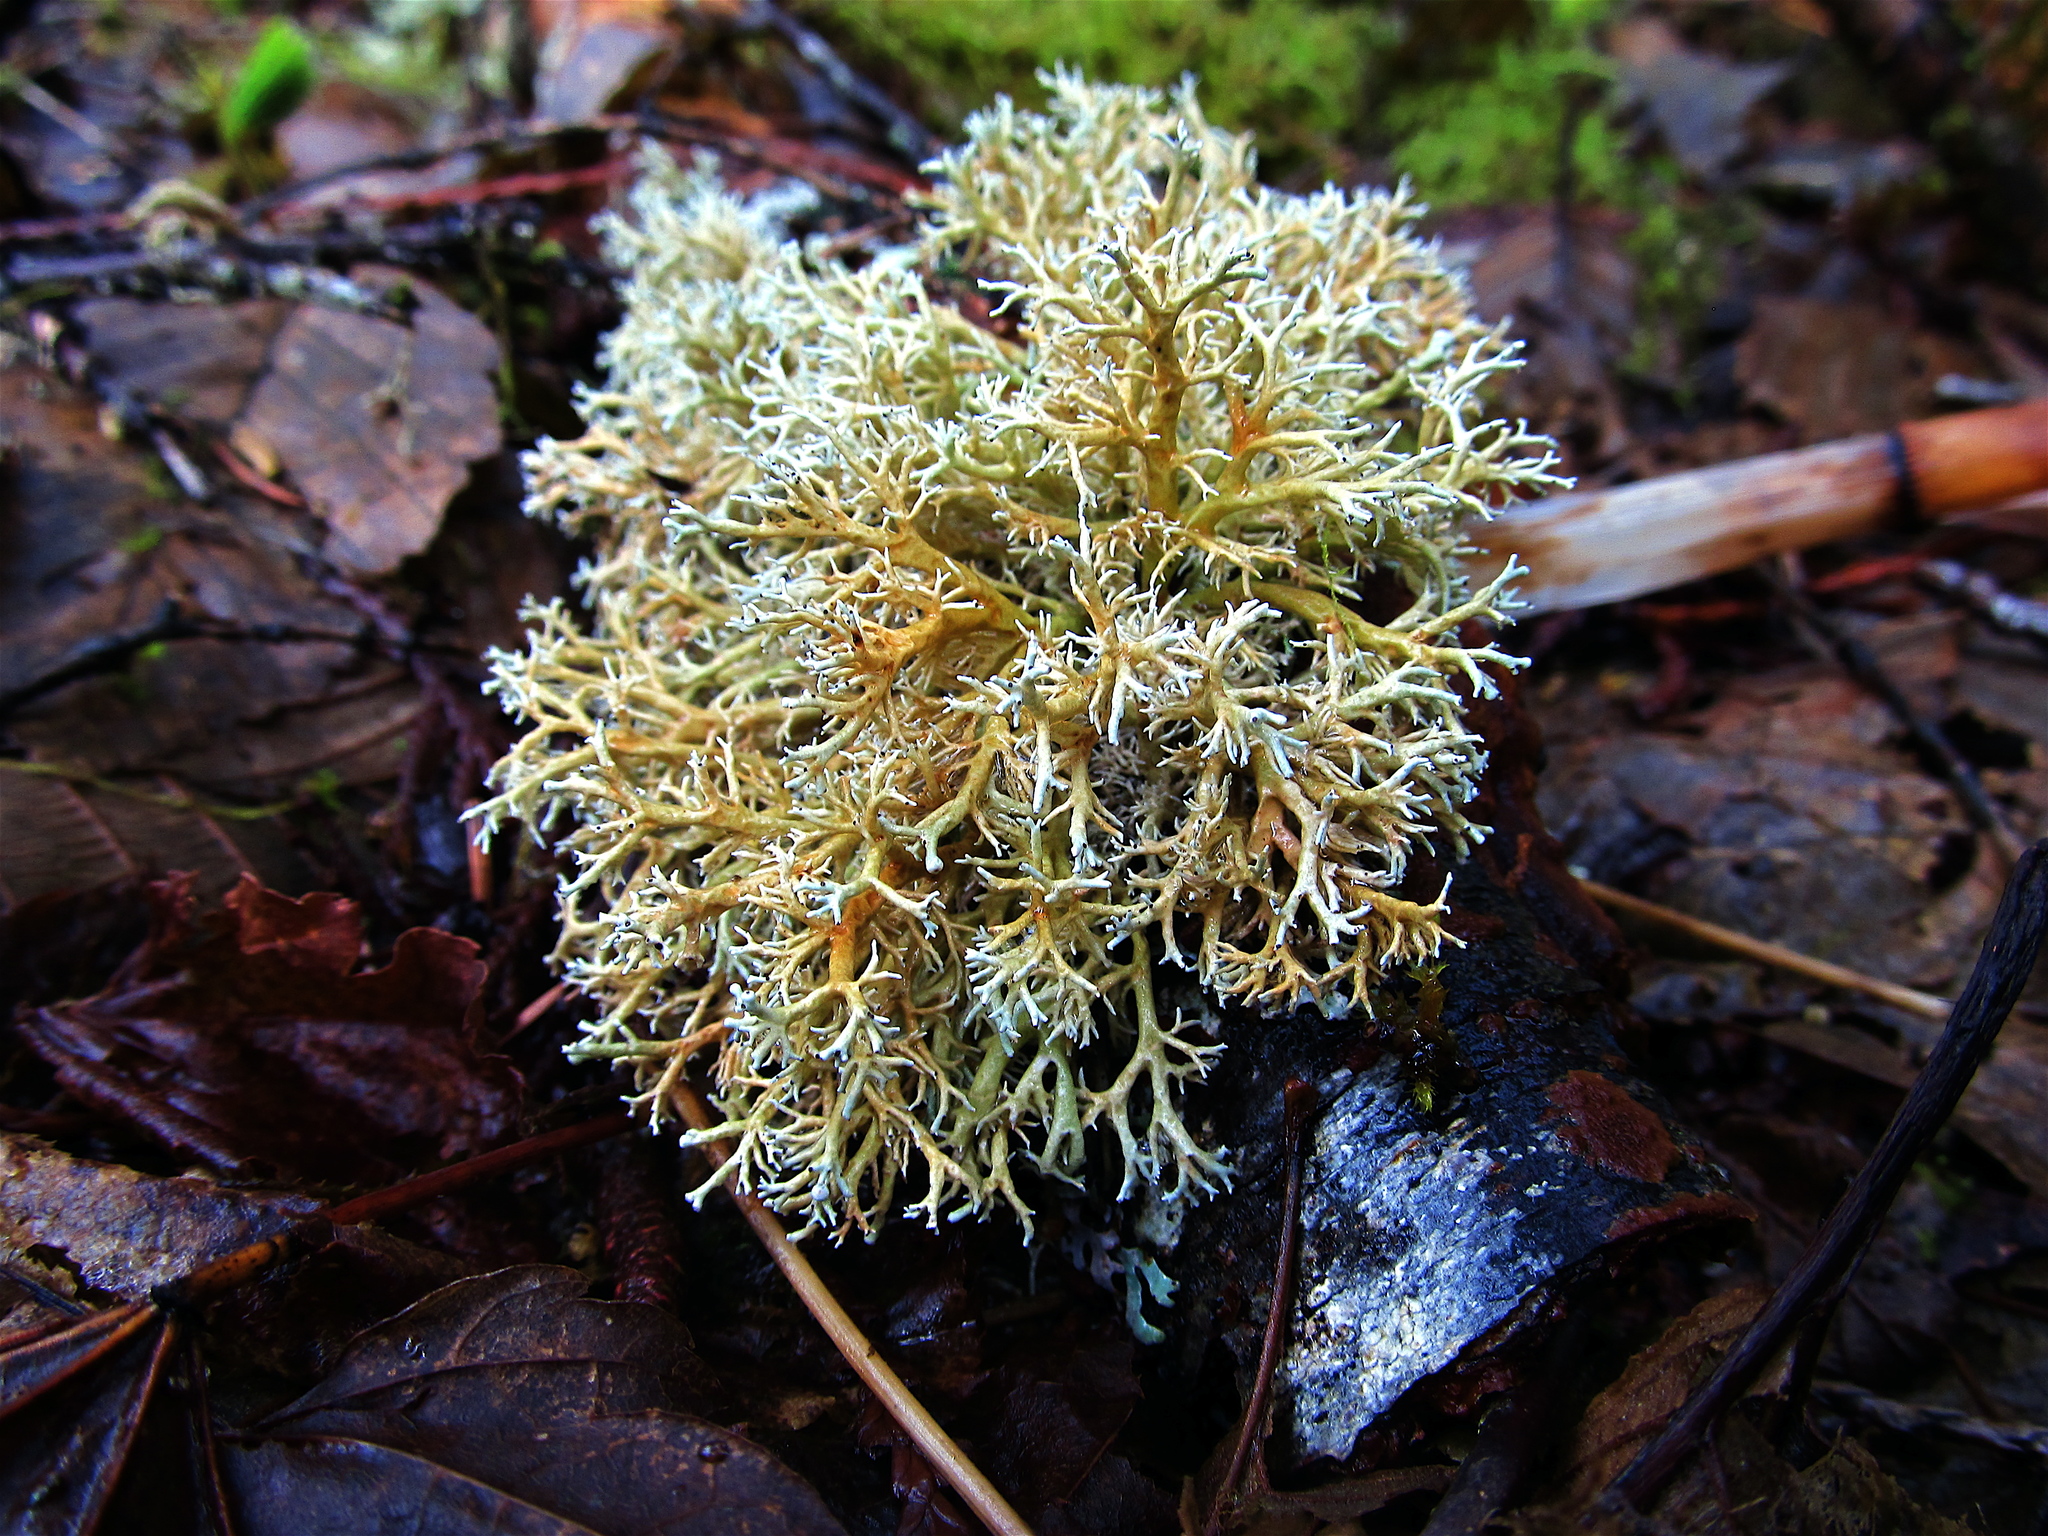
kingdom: Fungi
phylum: Ascomycota
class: Lecanoromycetes
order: Lecanorales
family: Sphaerophoraceae
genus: Sphaerophorus
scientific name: Sphaerophorus venerabilis
